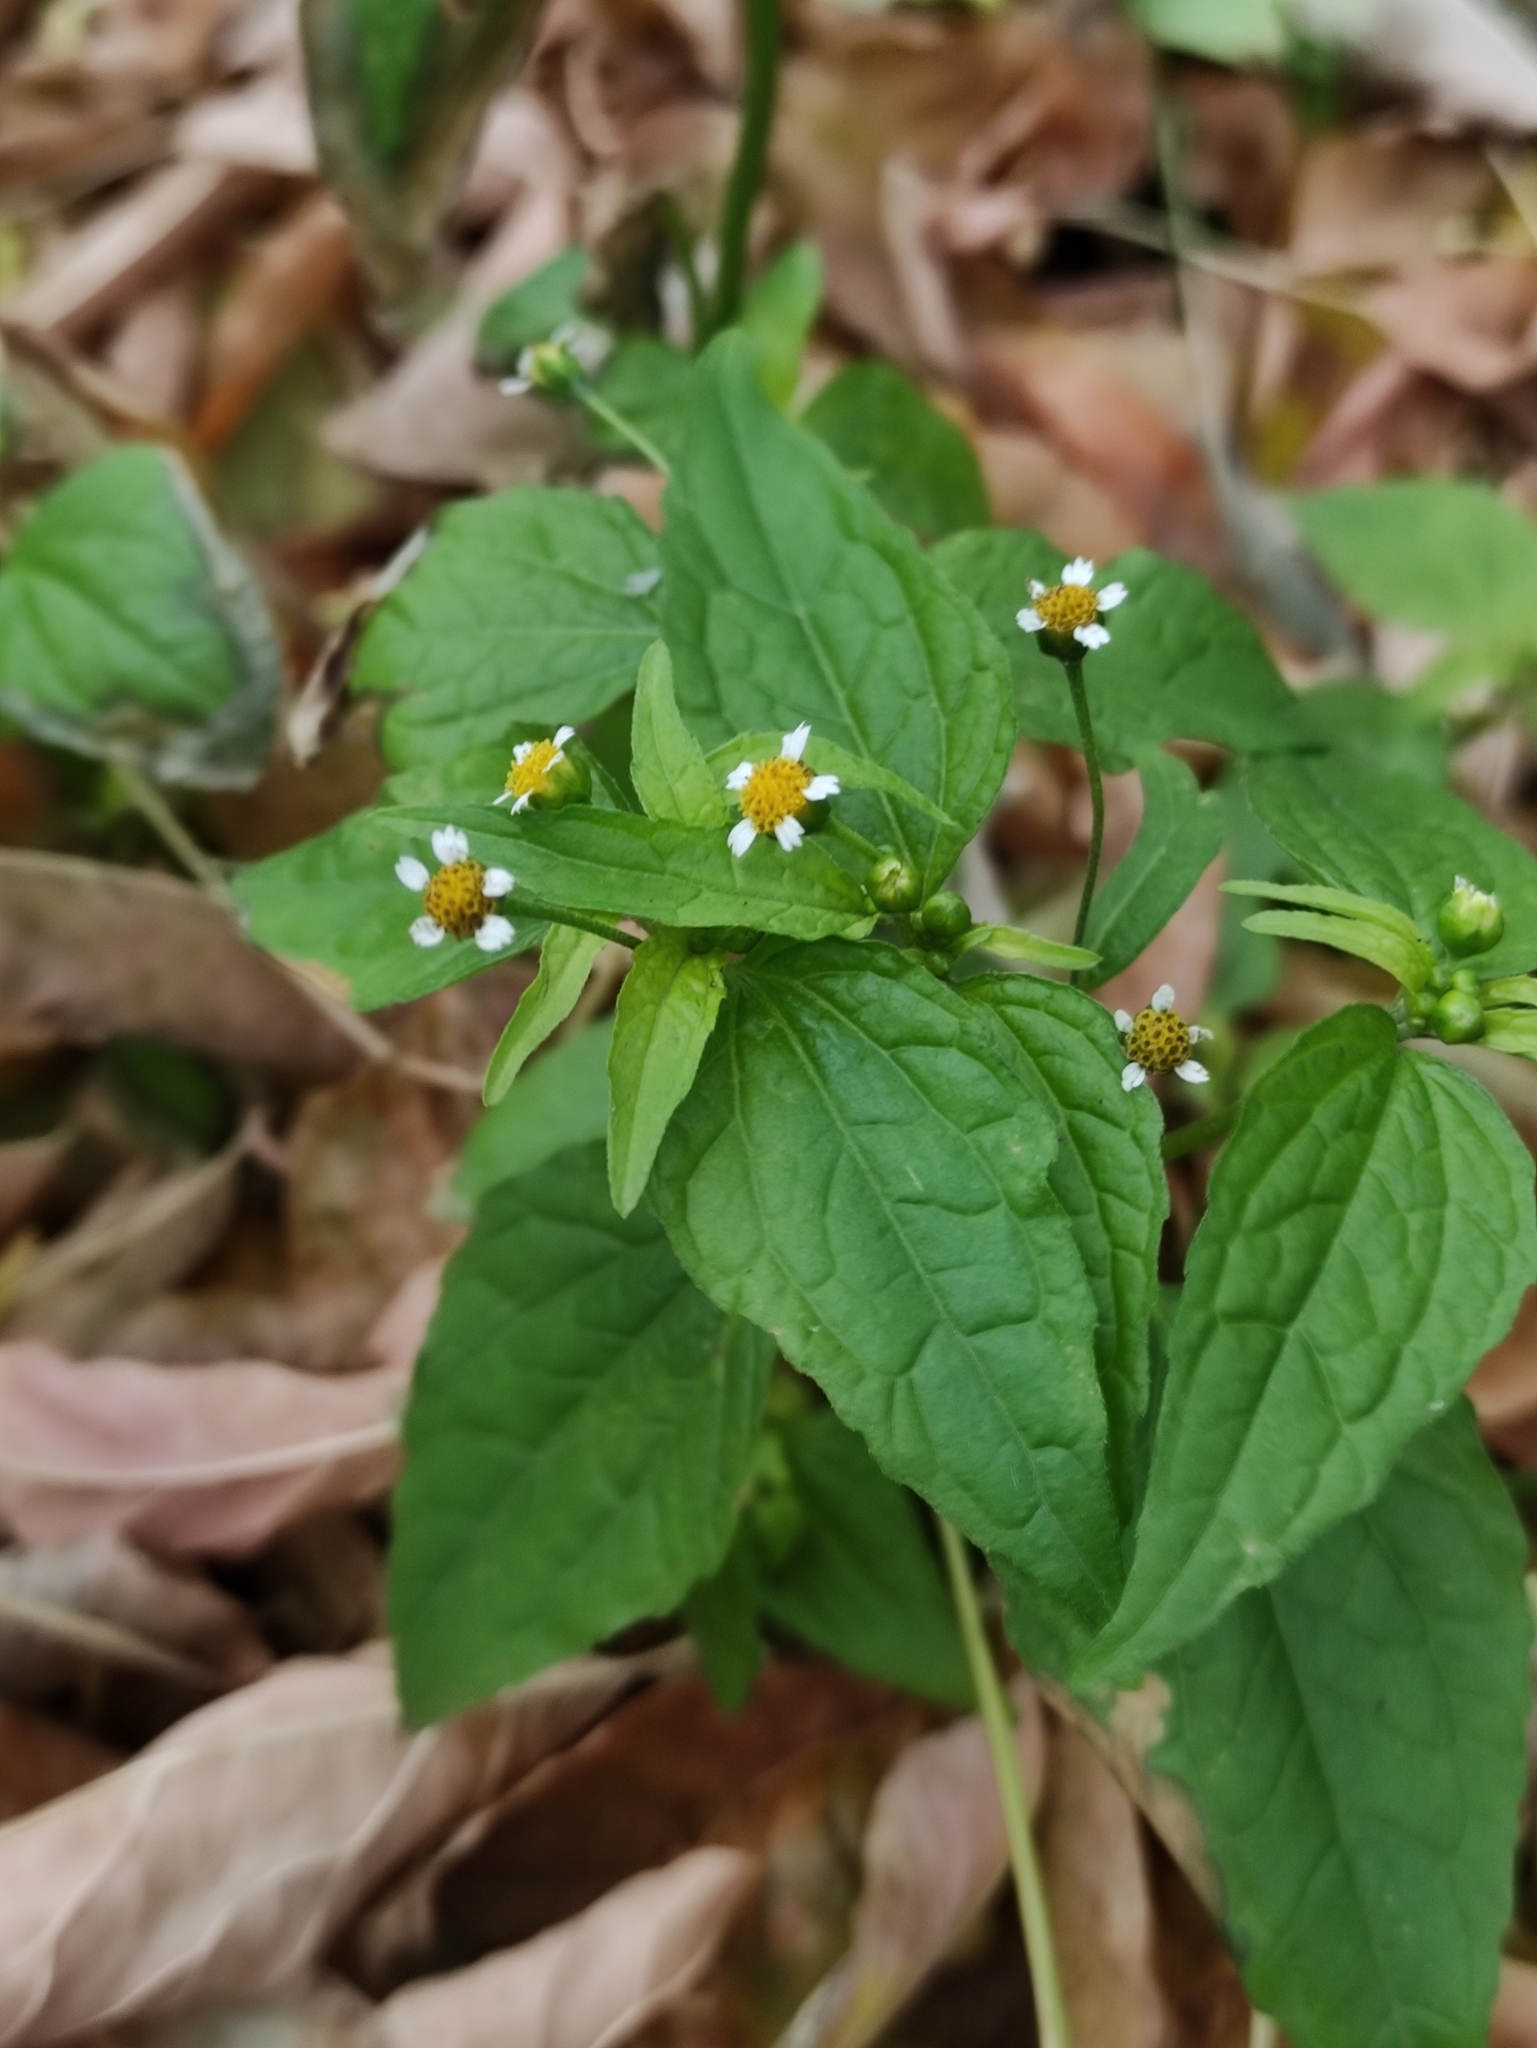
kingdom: Plantae
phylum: Tracheophyta
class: Magnoliopsida
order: Asterales
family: Asteraceae
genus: Galinsoga
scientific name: Galinsoga parviflora
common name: Gallant soldier
